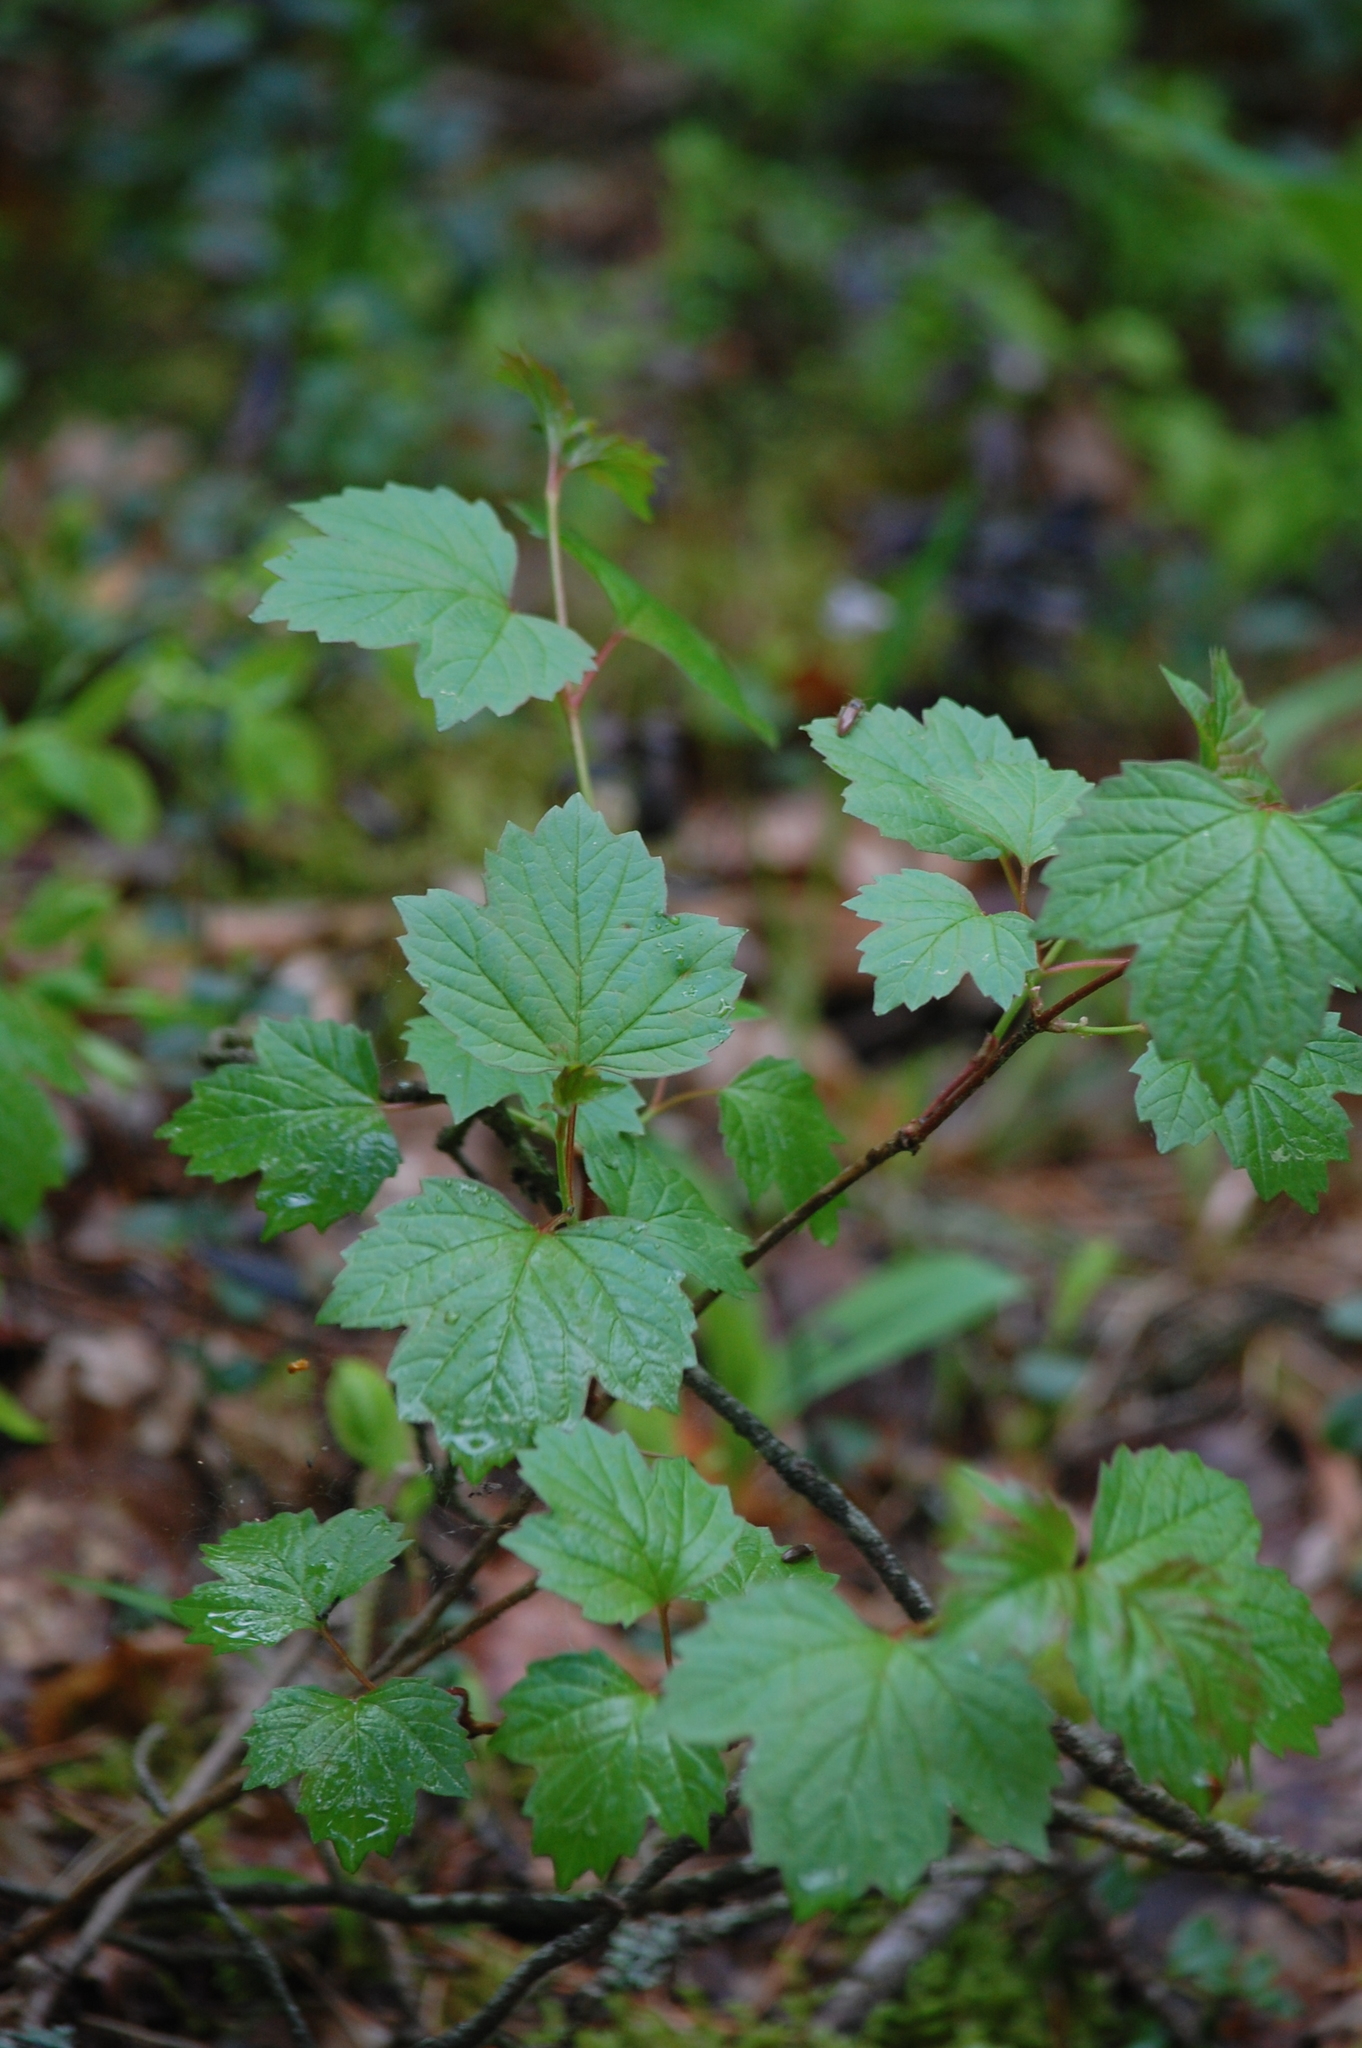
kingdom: Plantae
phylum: Tracheophyta
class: Magnoliopsida
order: Dipsacales
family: Viburnaceae
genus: Viburnum
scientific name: Viburnum opulus
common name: Guelder-rose
